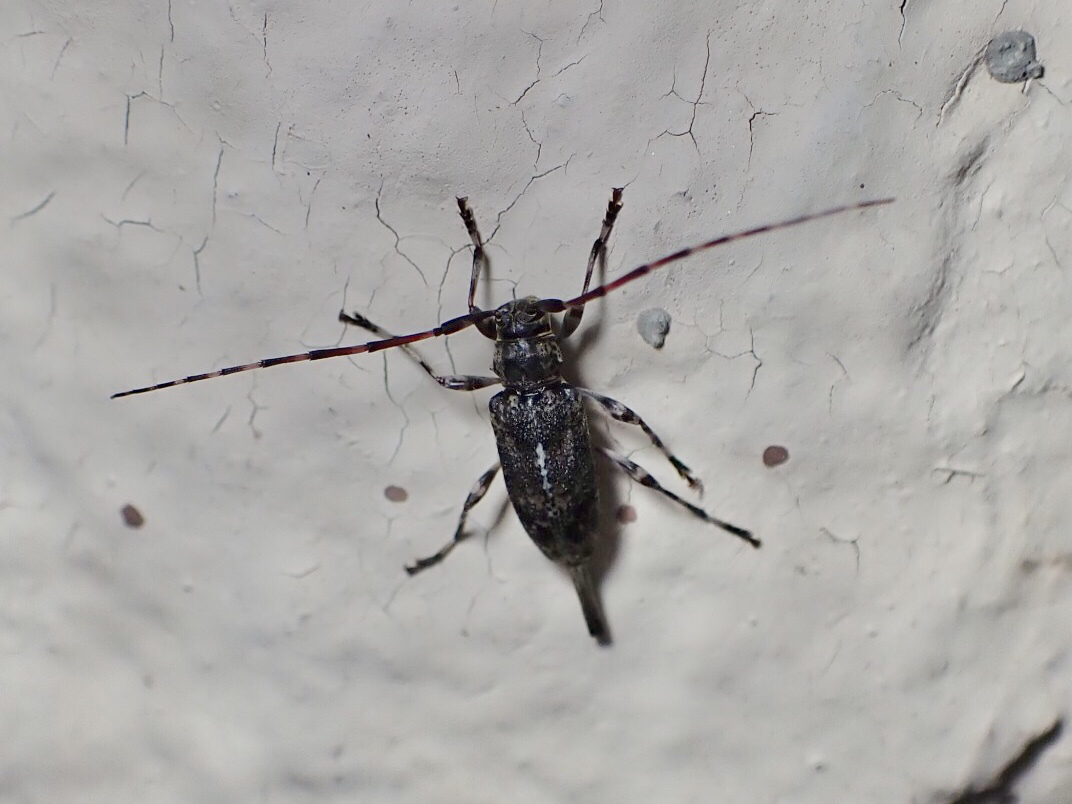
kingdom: Animalia
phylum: Arthropoda
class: Insecta
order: Coleoptera
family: Cerambycidae
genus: Graphisurus
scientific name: Graphisurus fasciatus
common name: Banded graphisurus
